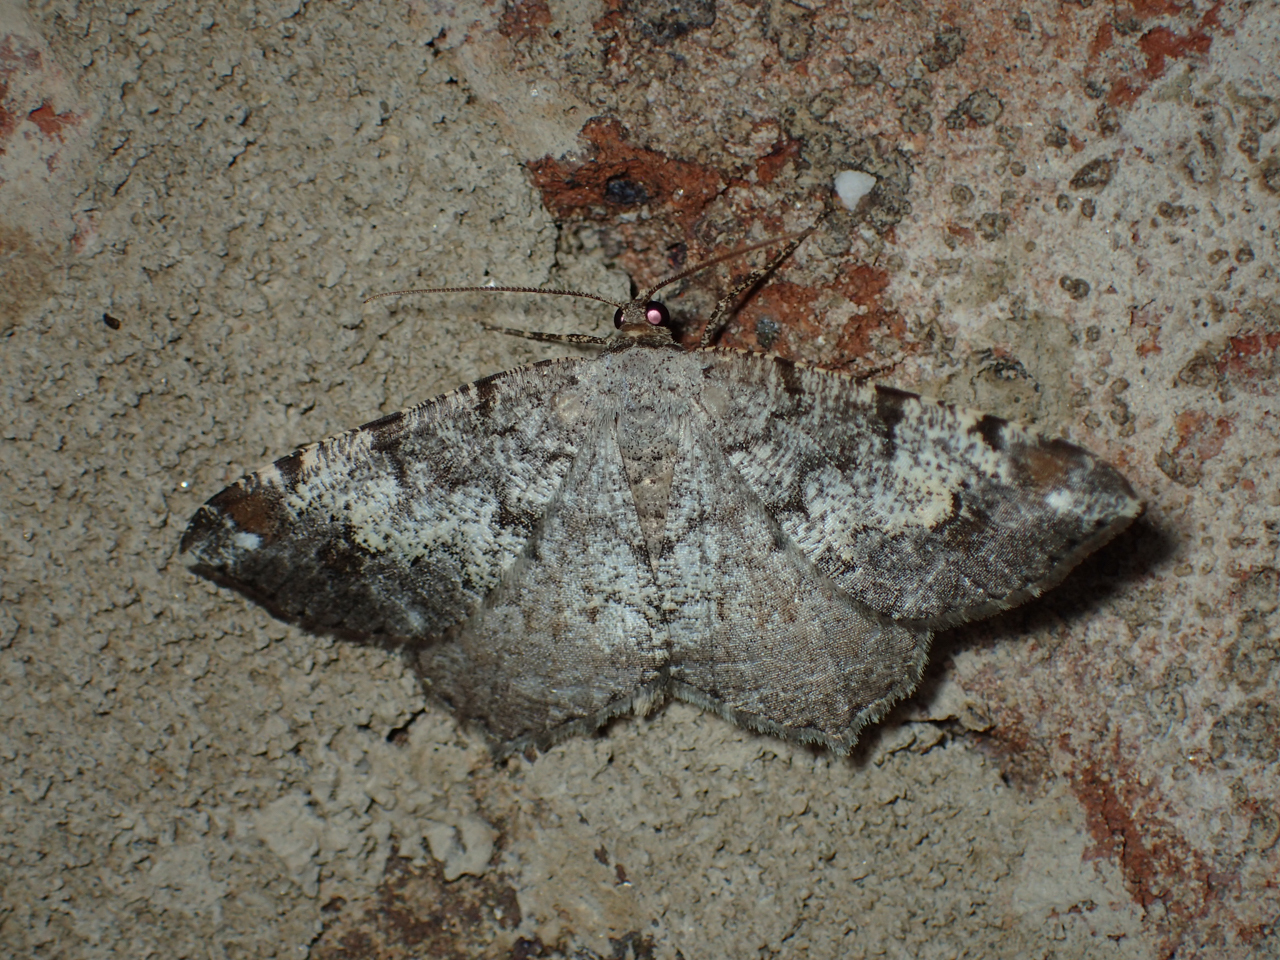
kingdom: Animalia
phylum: Arthropoda
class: Insecta
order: Lepidoptera
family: Geometridae
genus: Macaria
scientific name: Macaria granitata
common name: Granite moth
